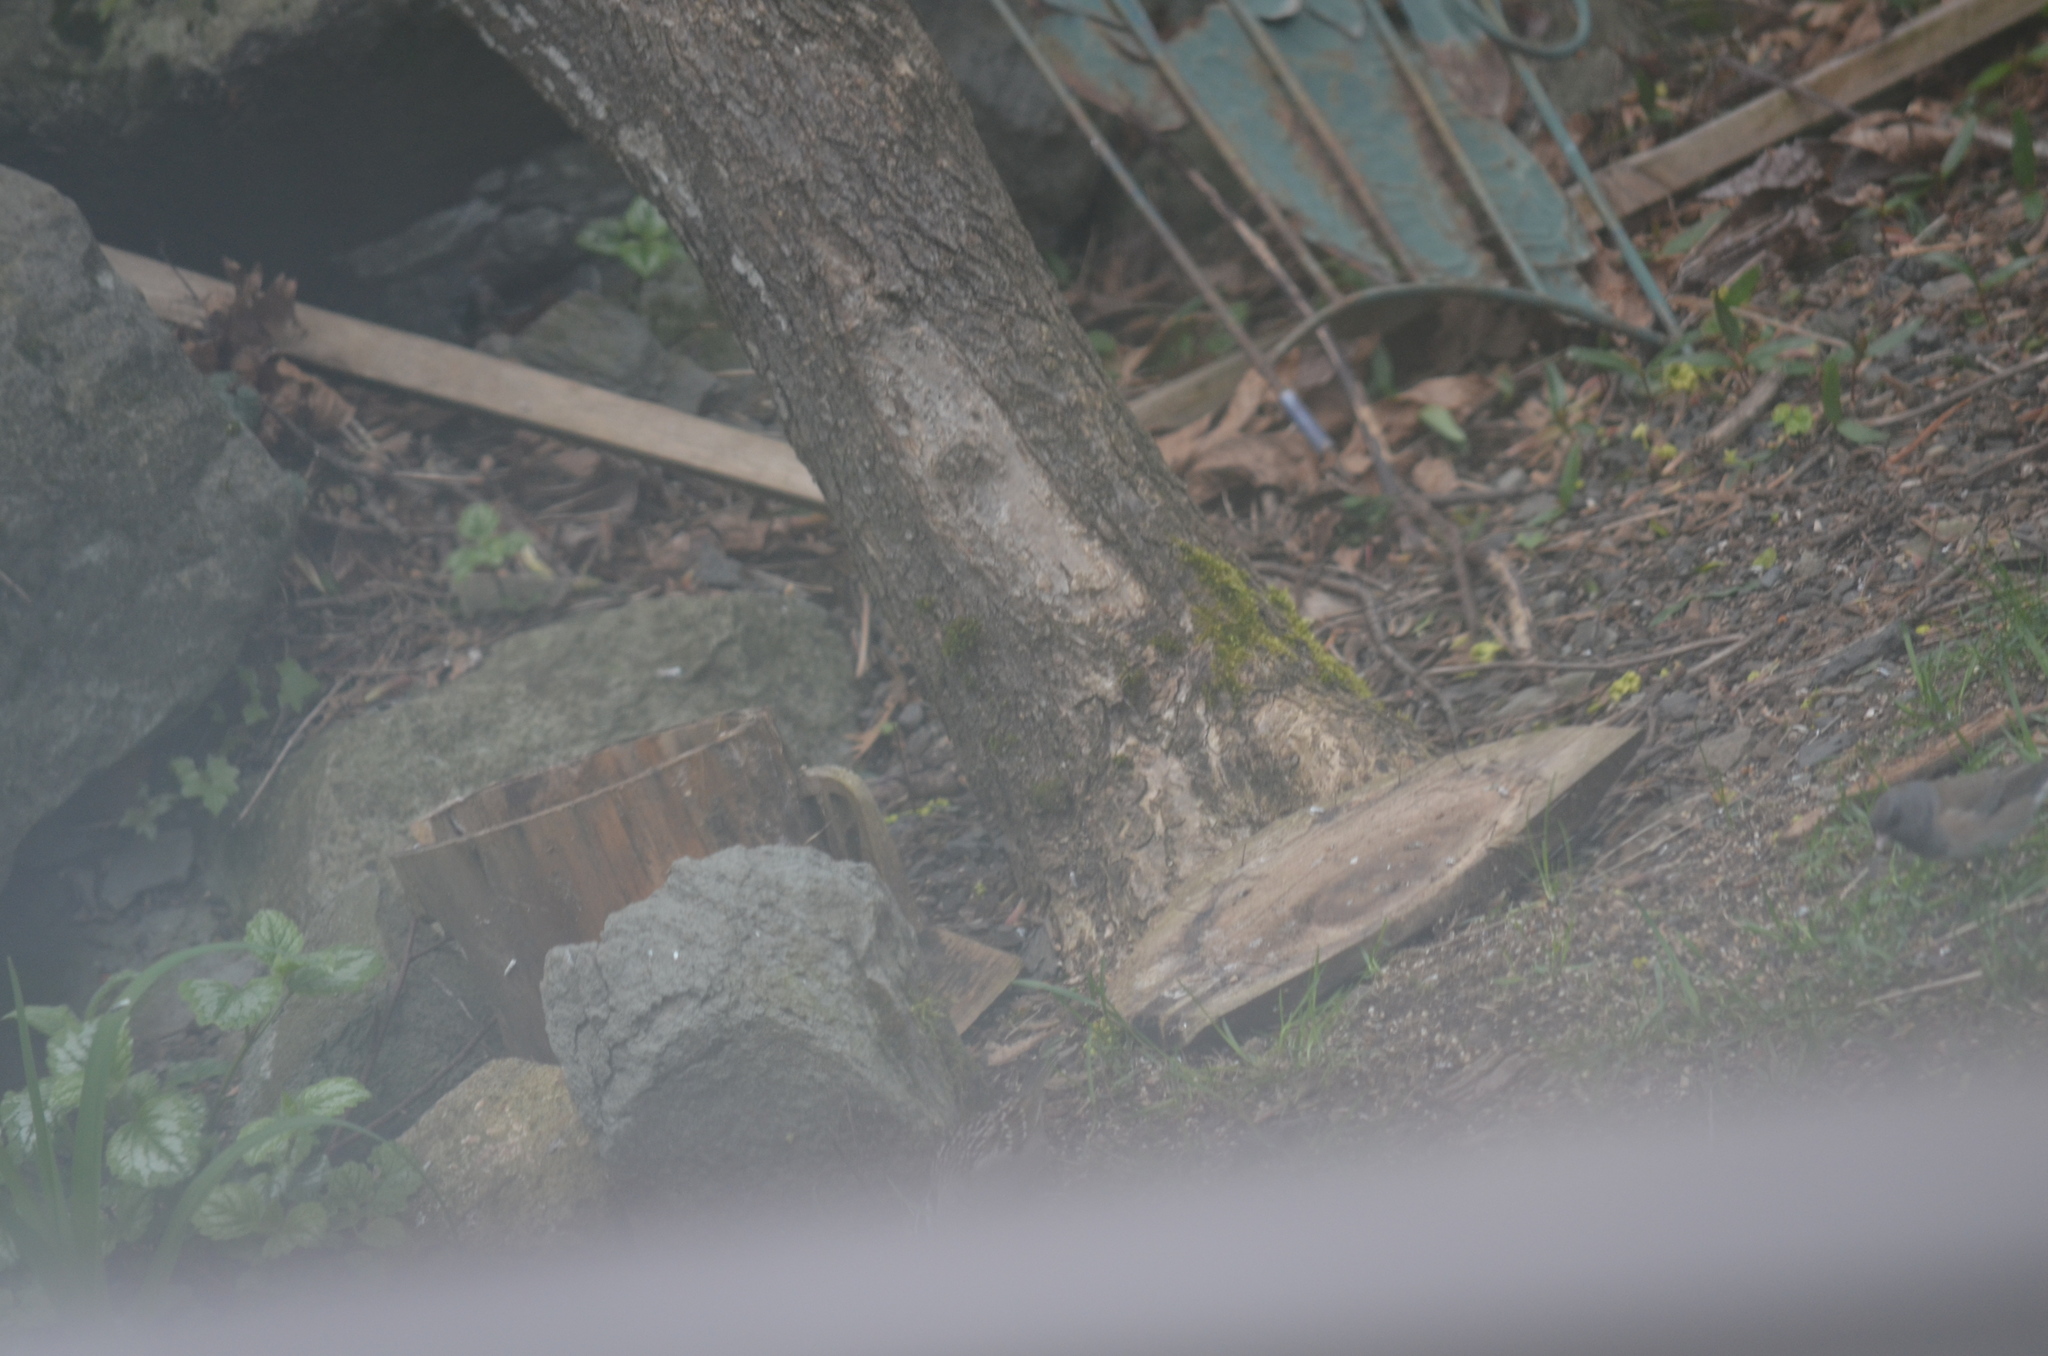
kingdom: Animalia
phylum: Chordata
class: Aves
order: Passeriformes
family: Passerellidae
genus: Junco
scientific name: Junco hyemalis
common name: Dark-eyed junco
